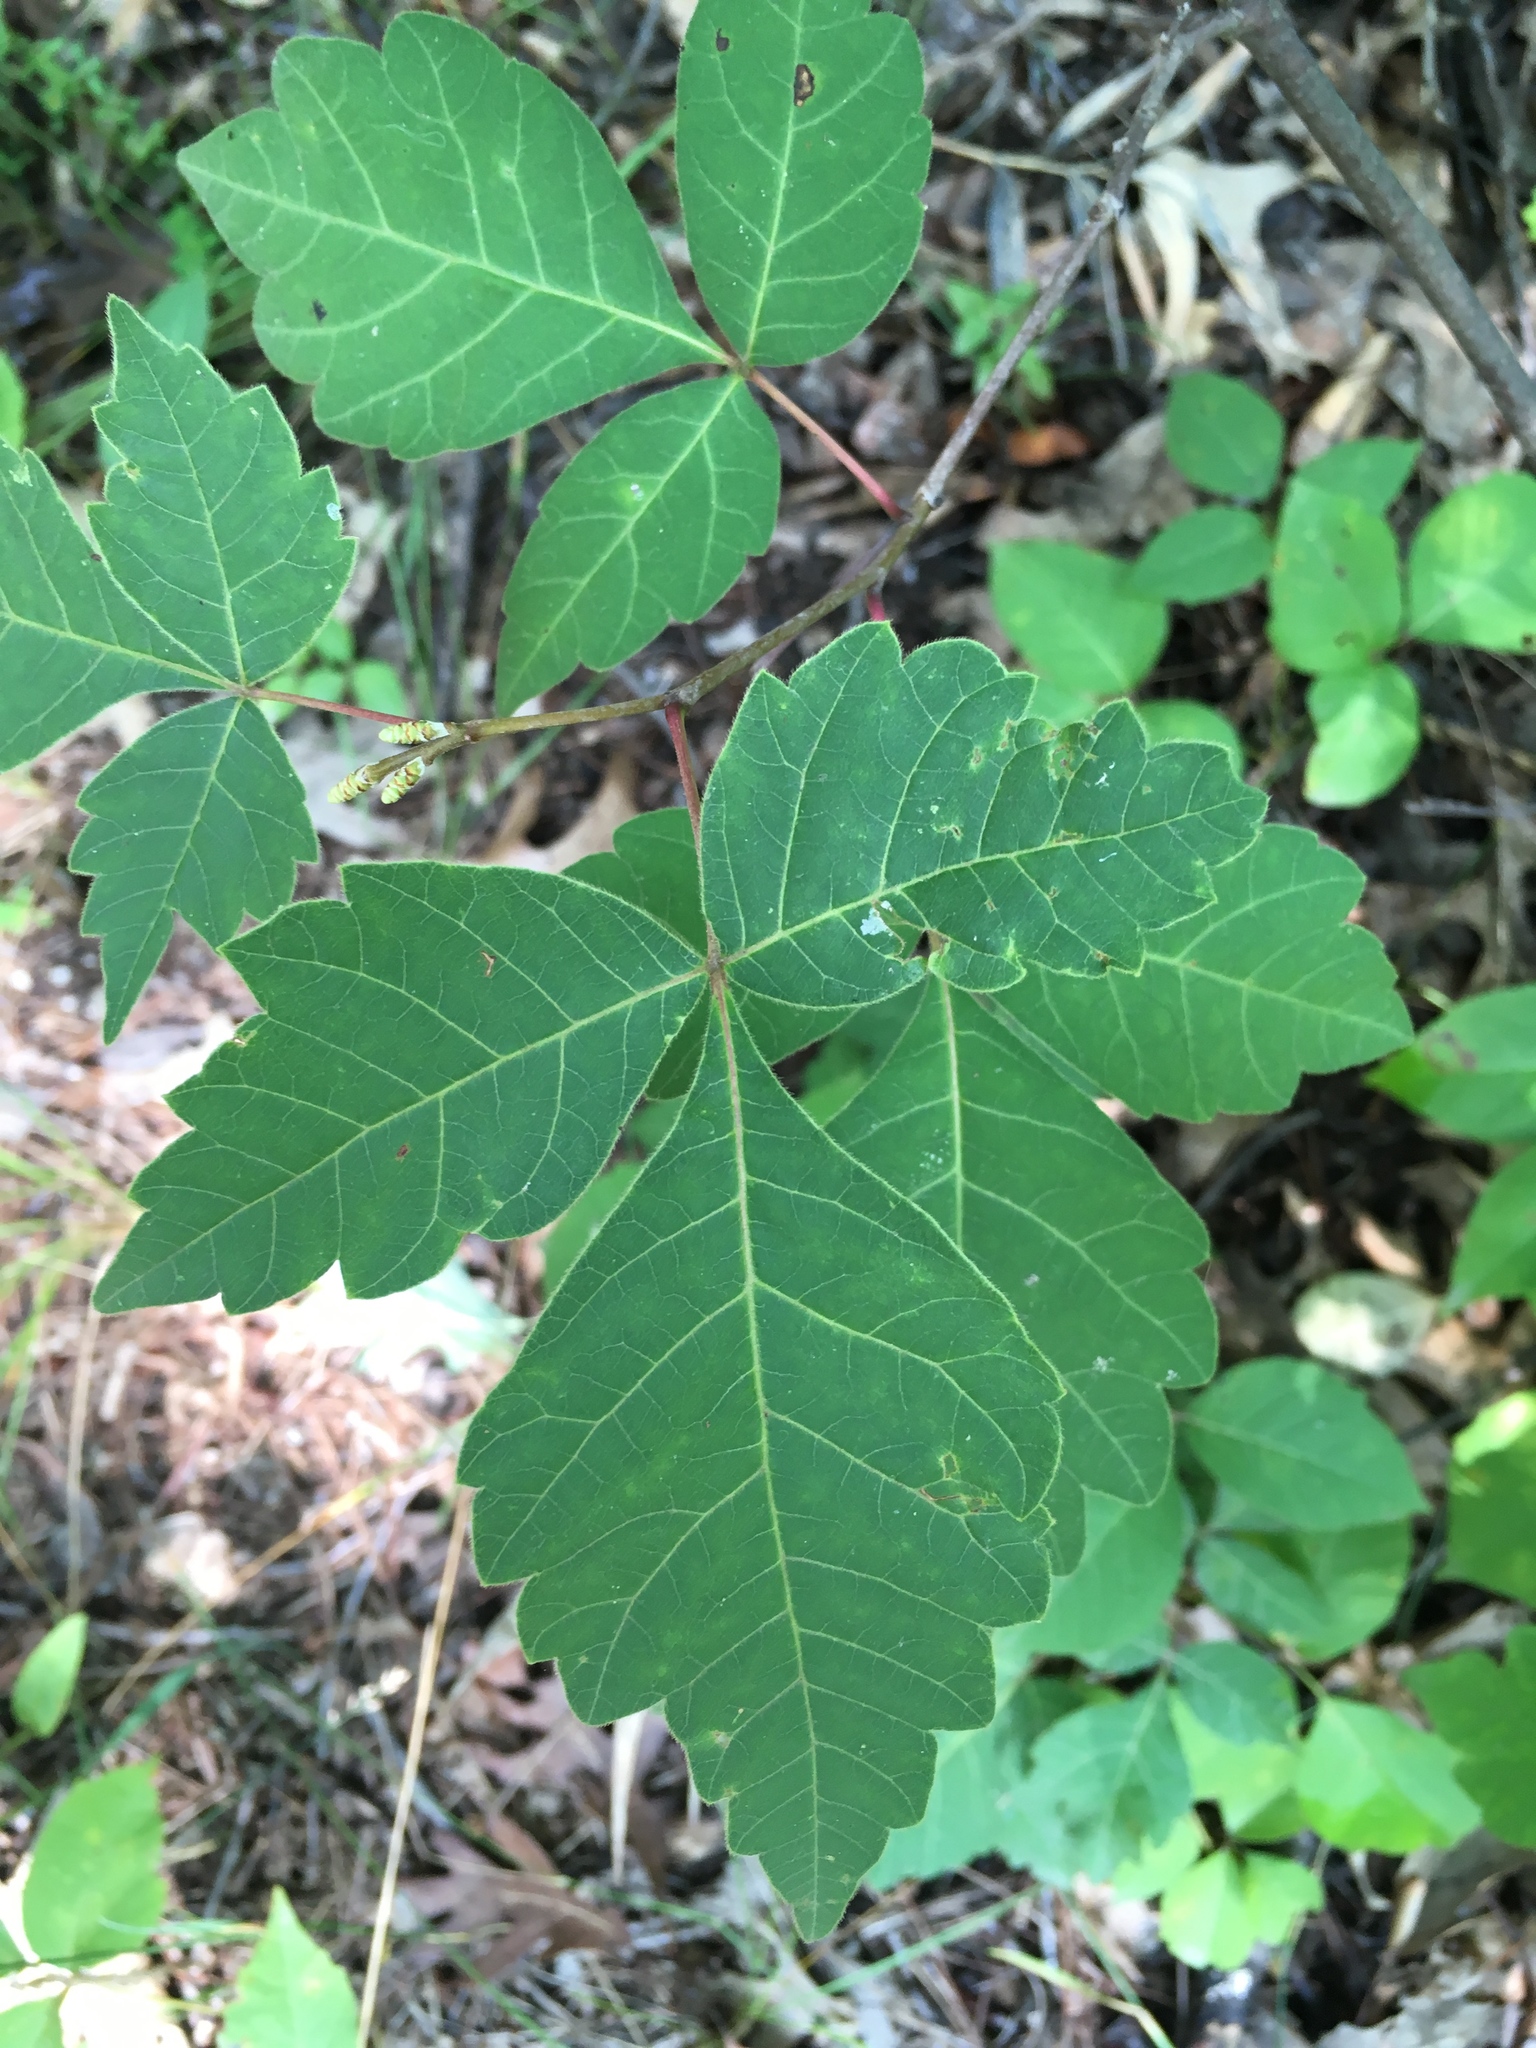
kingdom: Plantae
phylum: Tracheophyta
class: Magnoliopsida
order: Sapindales
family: Anacardiaceae
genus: Rhus
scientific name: Rhus aromatica
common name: Aromatic sumac
